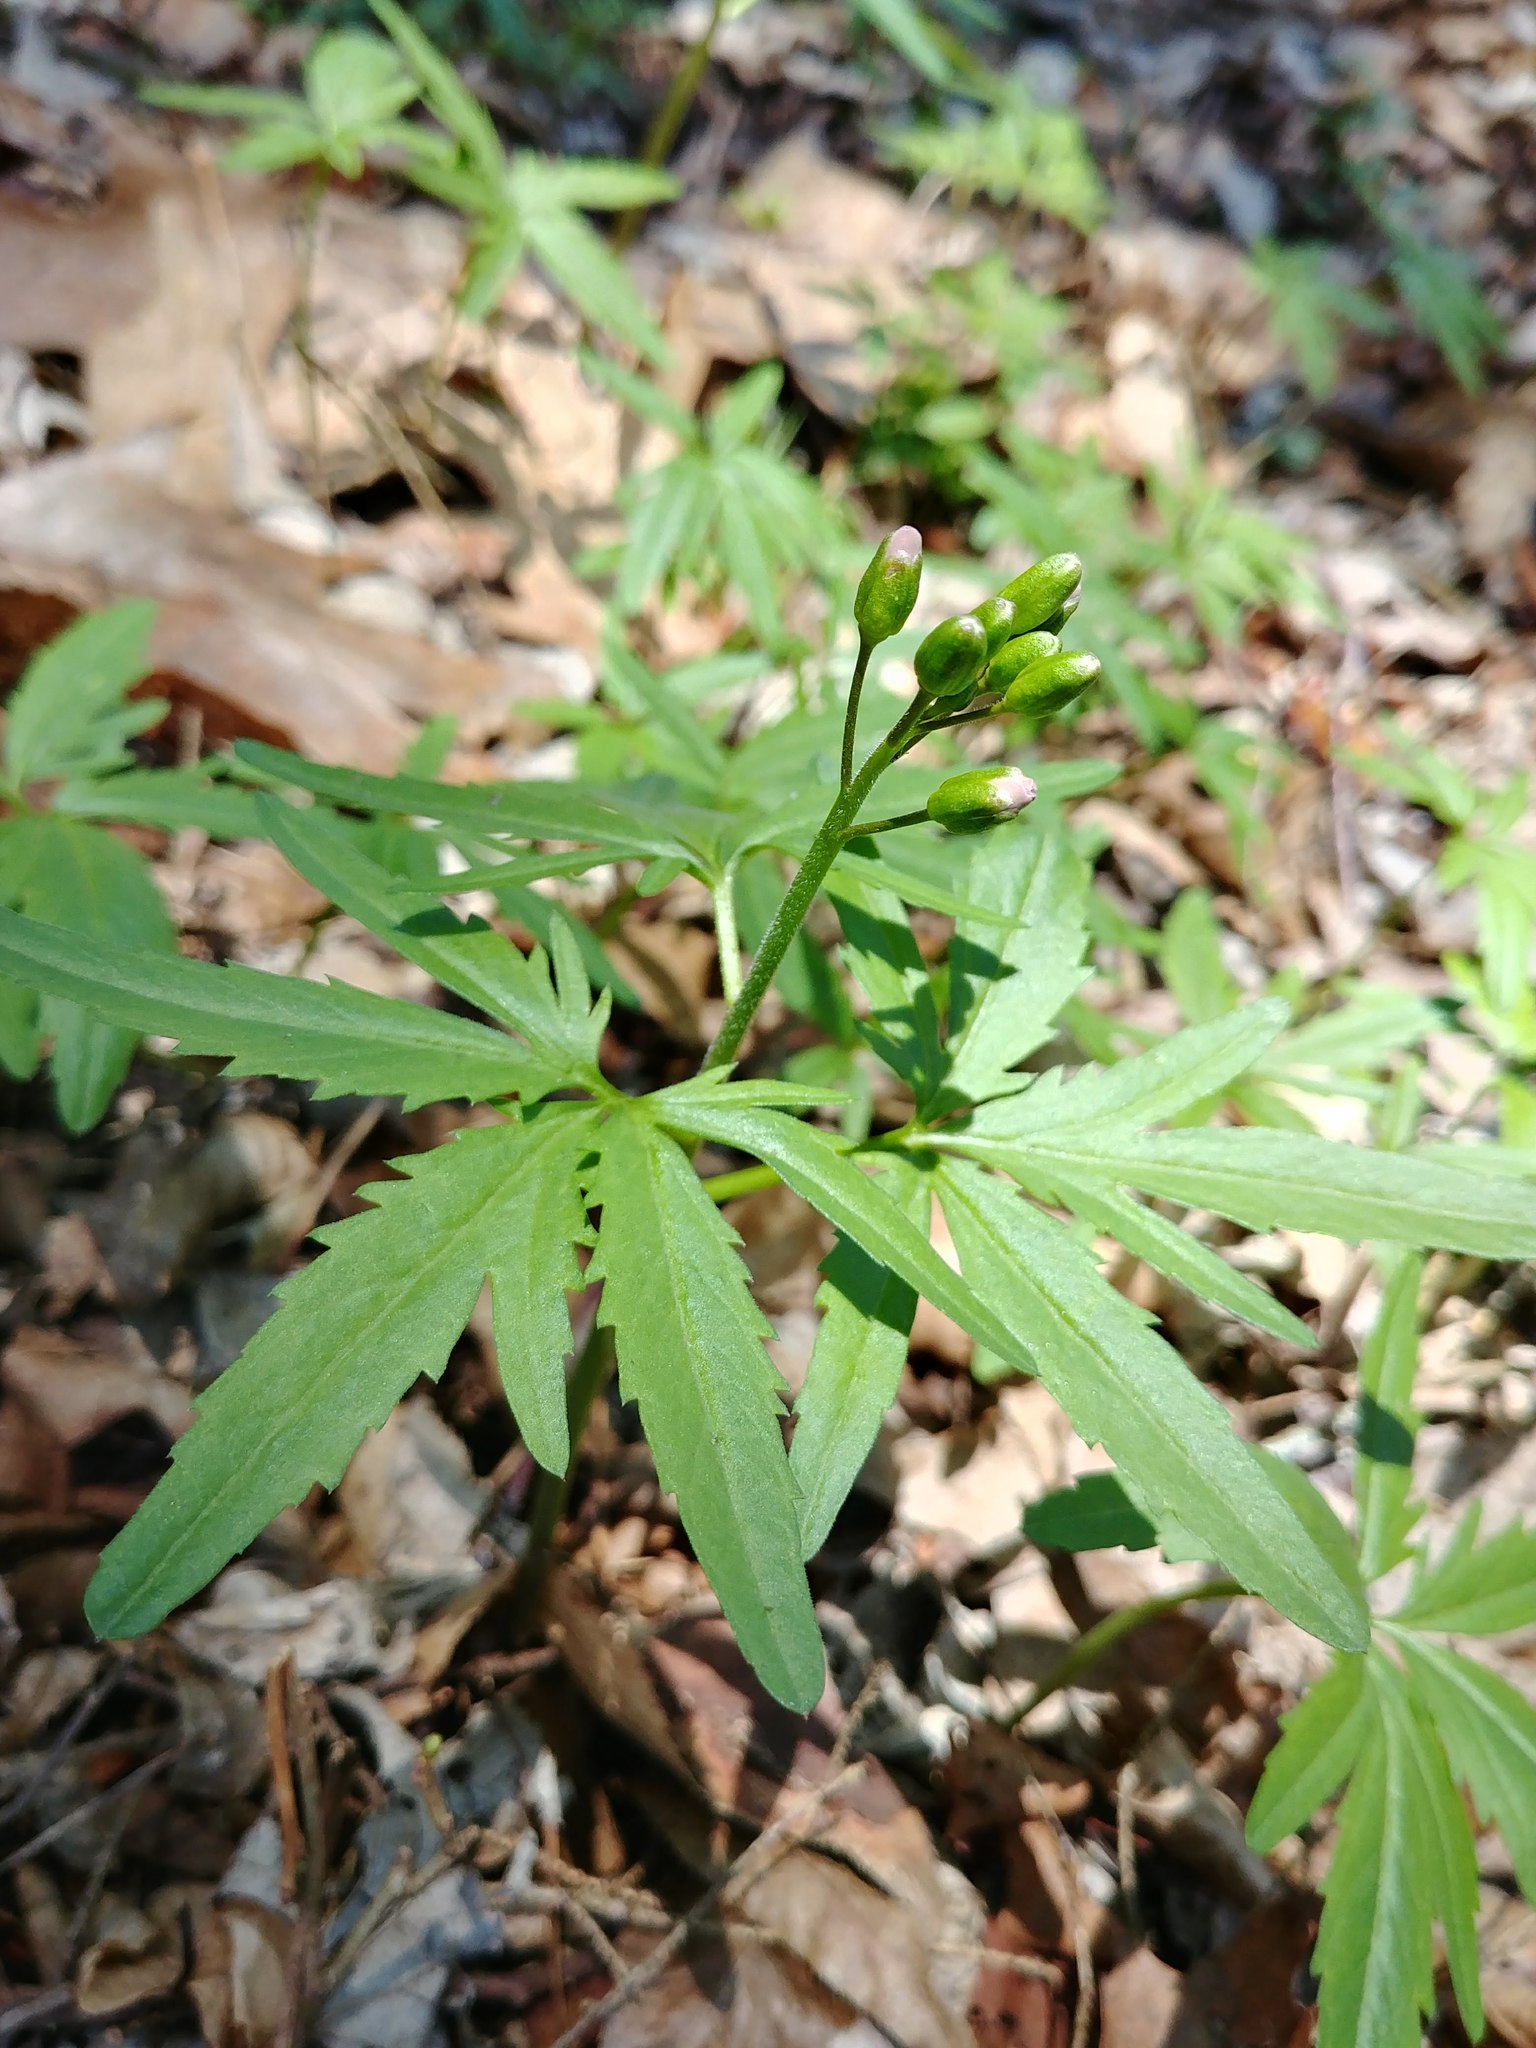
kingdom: Plantae
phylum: Tracheophyta
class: Magnoliopsida
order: Brassicales
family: Brassicaceae
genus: Cardamine
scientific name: Cardamine concatenata
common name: Cut-leaf toothcup
